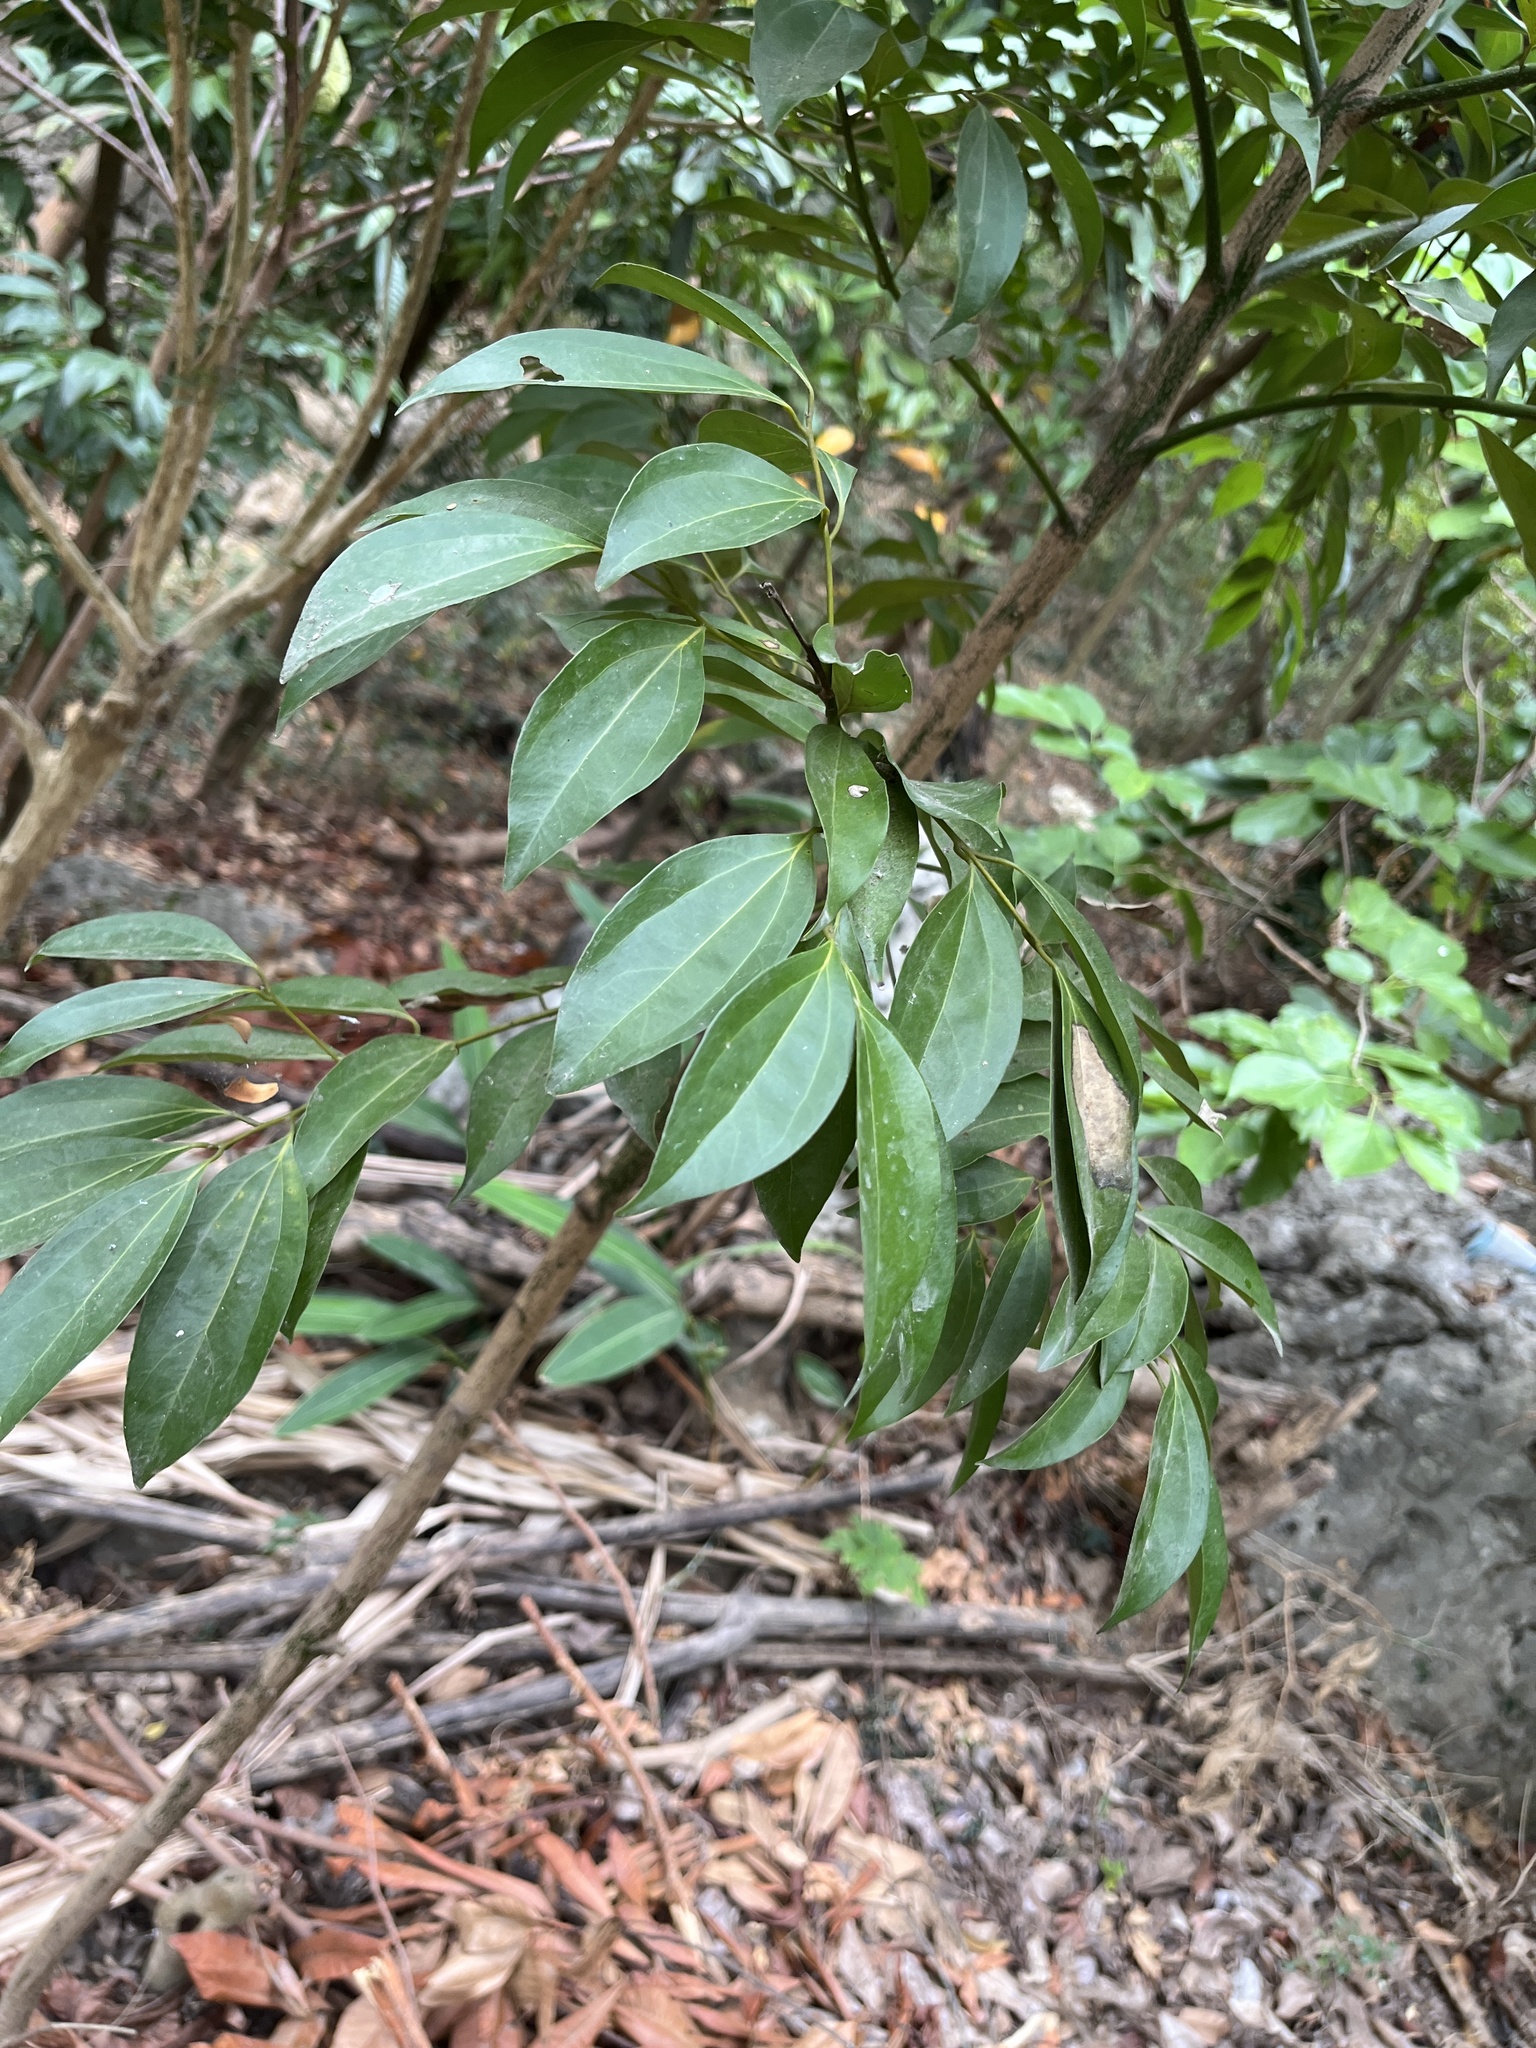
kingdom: Plantae
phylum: Tracheophyta
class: Magnoliopsida
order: Laurales
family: Lauraceae
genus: Cinnamomum
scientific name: Cinnamomum burmanni
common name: Padang cassia
